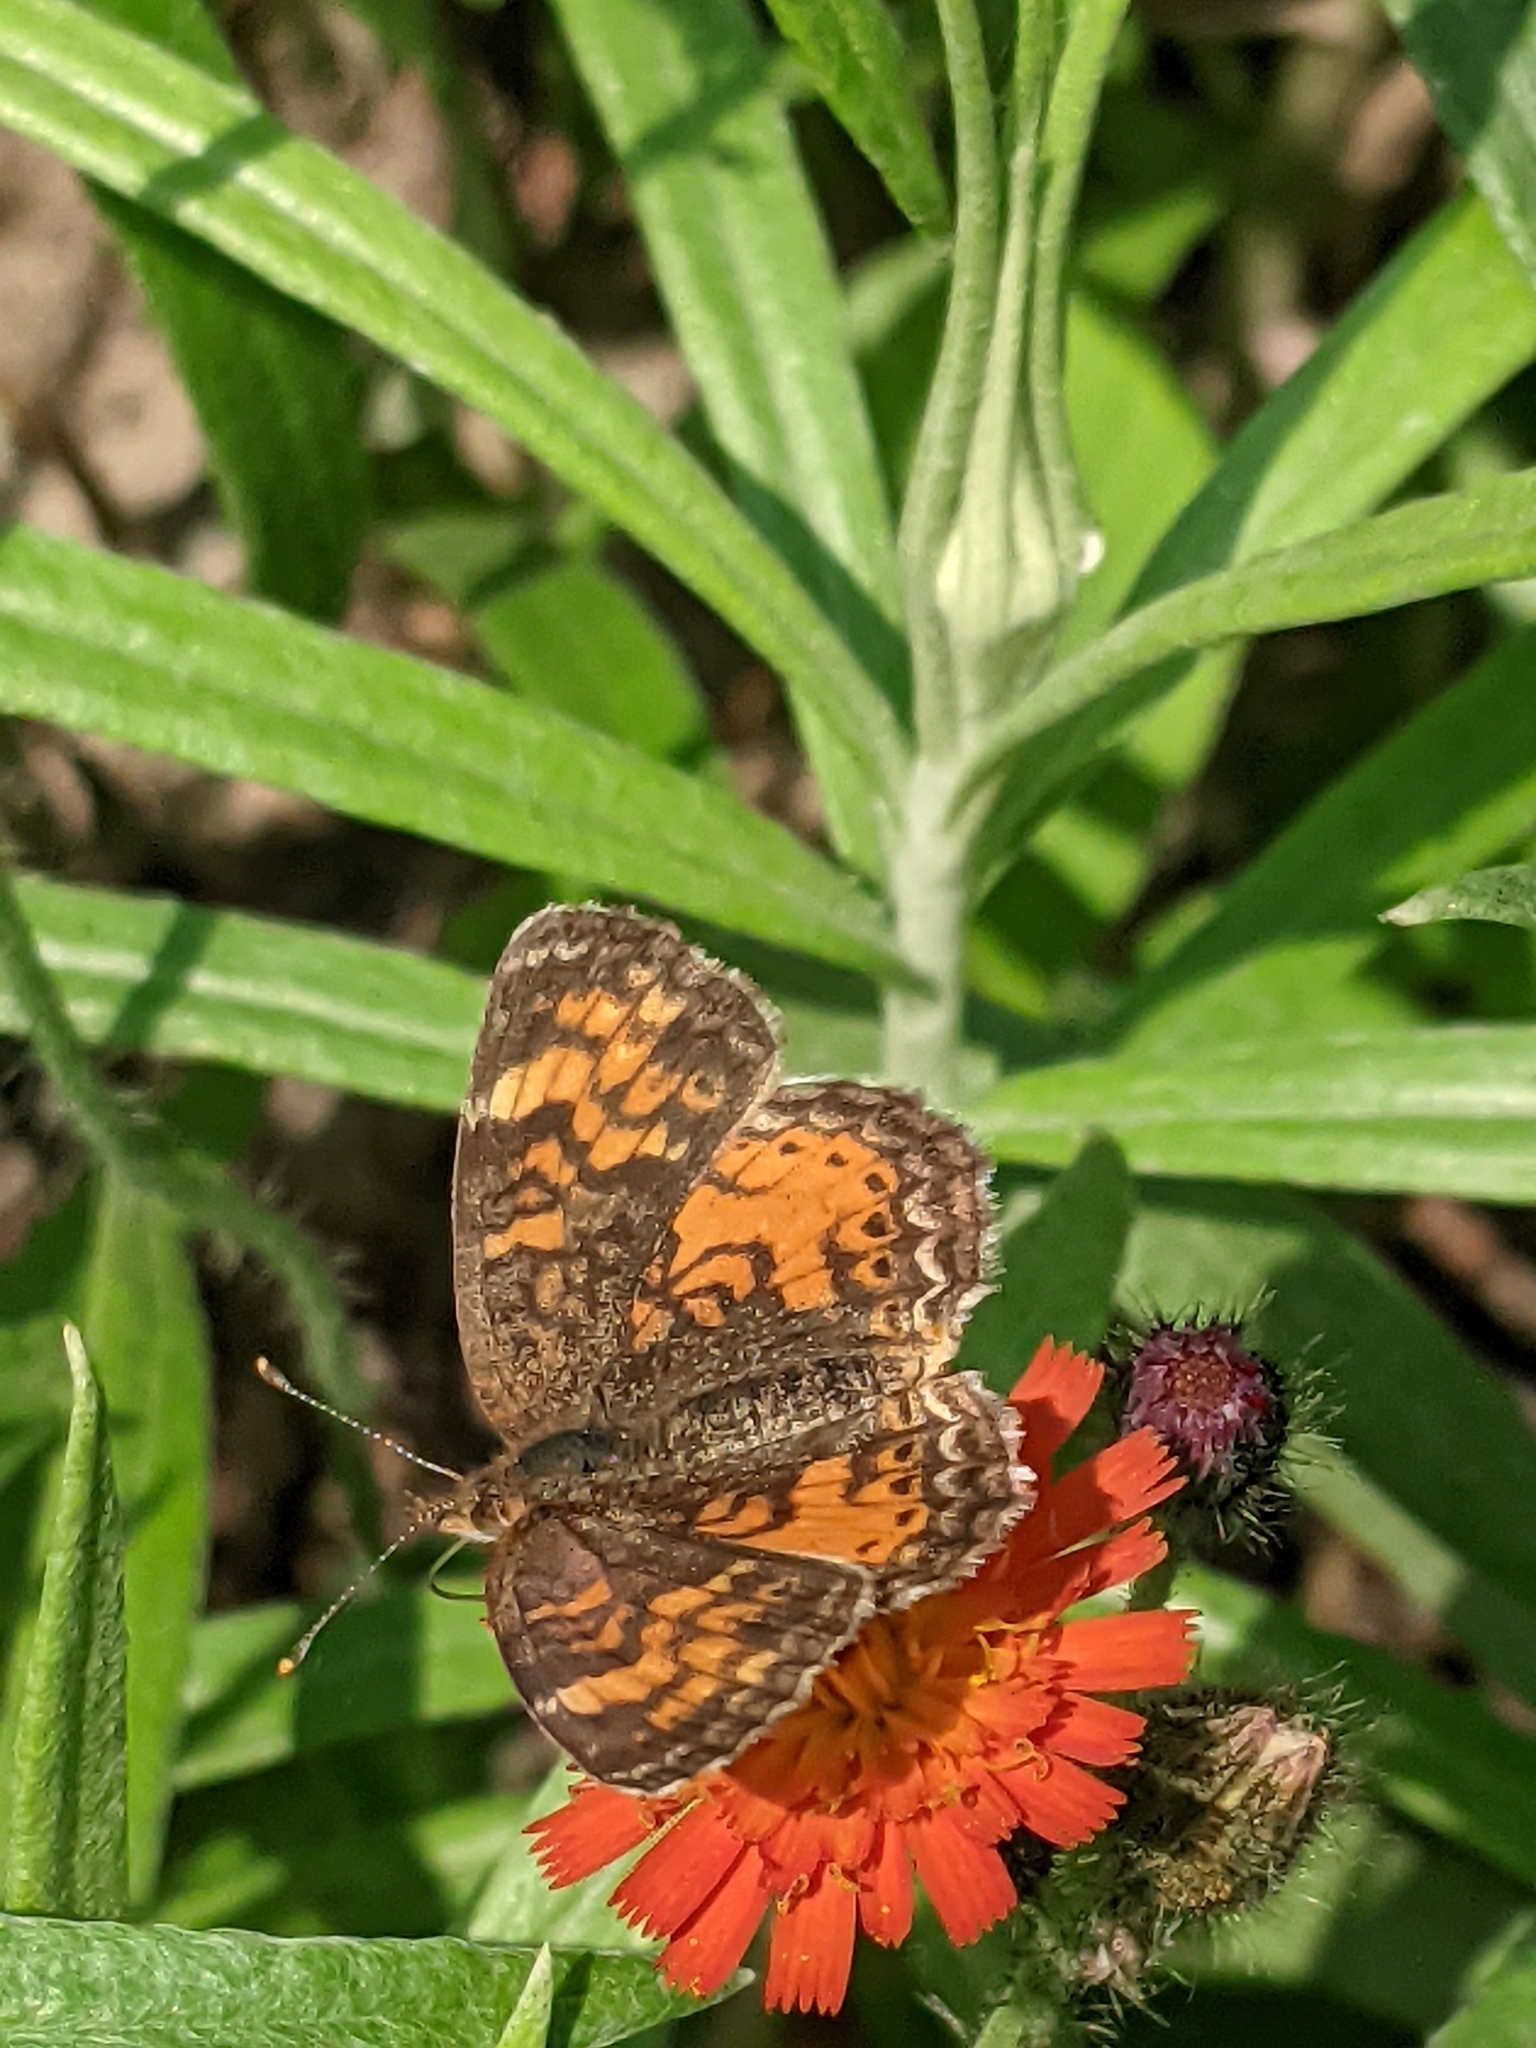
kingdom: Animalia
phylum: Arthropoda
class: Insecta
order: Lepidoptera
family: Nymphalidae
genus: Phyciodes
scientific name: Phyciodes tharos
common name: Pearl crescent
